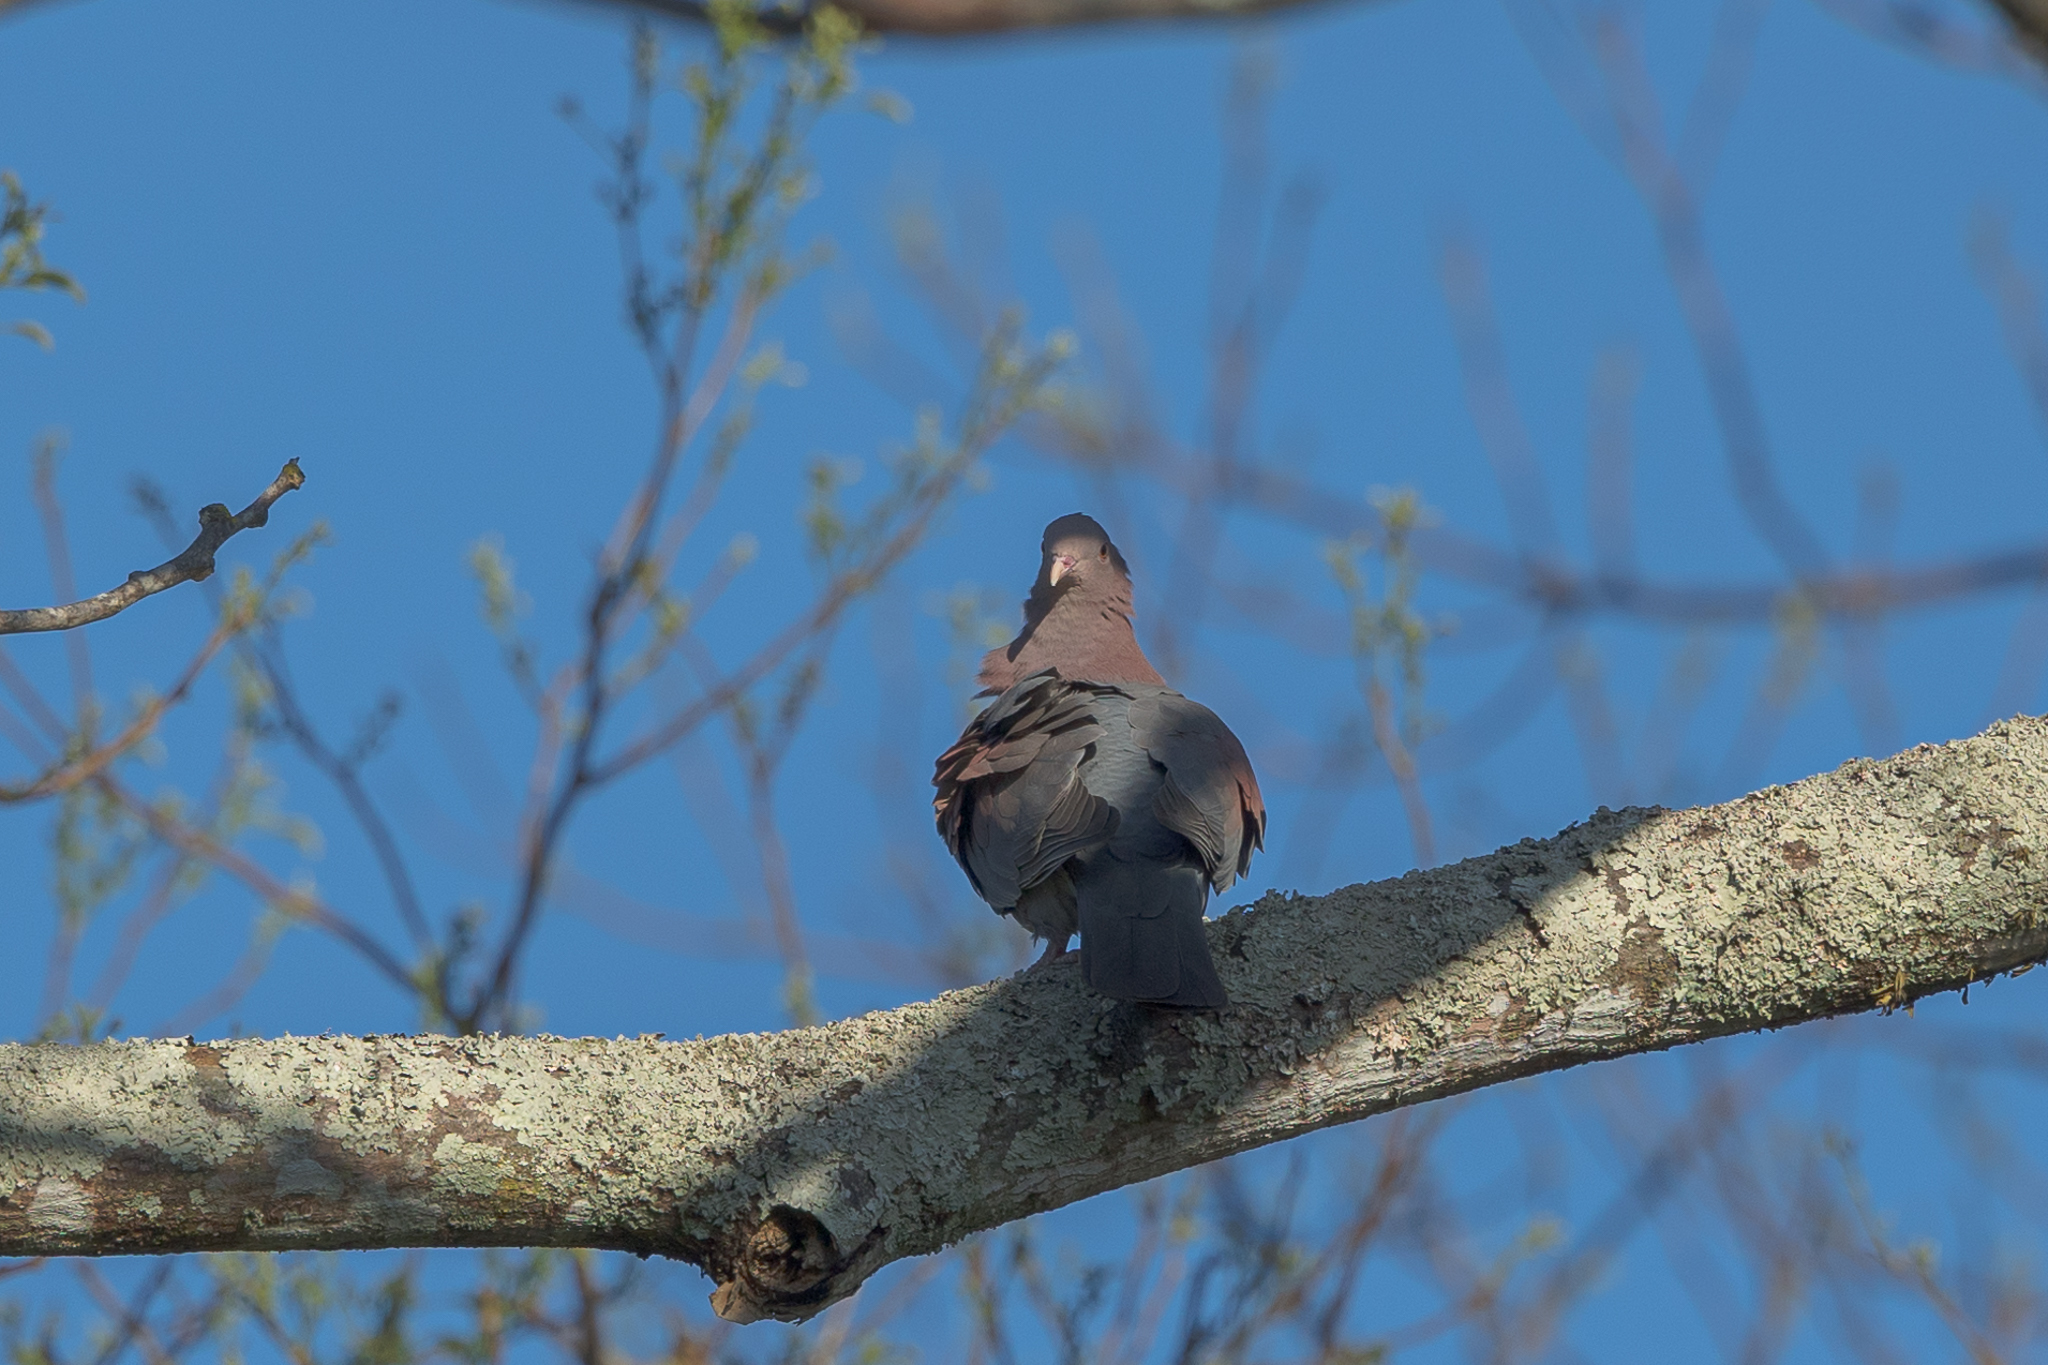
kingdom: Animalia
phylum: Chordata
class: Aves
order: Columbiformes
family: Columbidae
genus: Patagioenas
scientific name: Patagioenas flavirostris
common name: Red-billed pigeon
